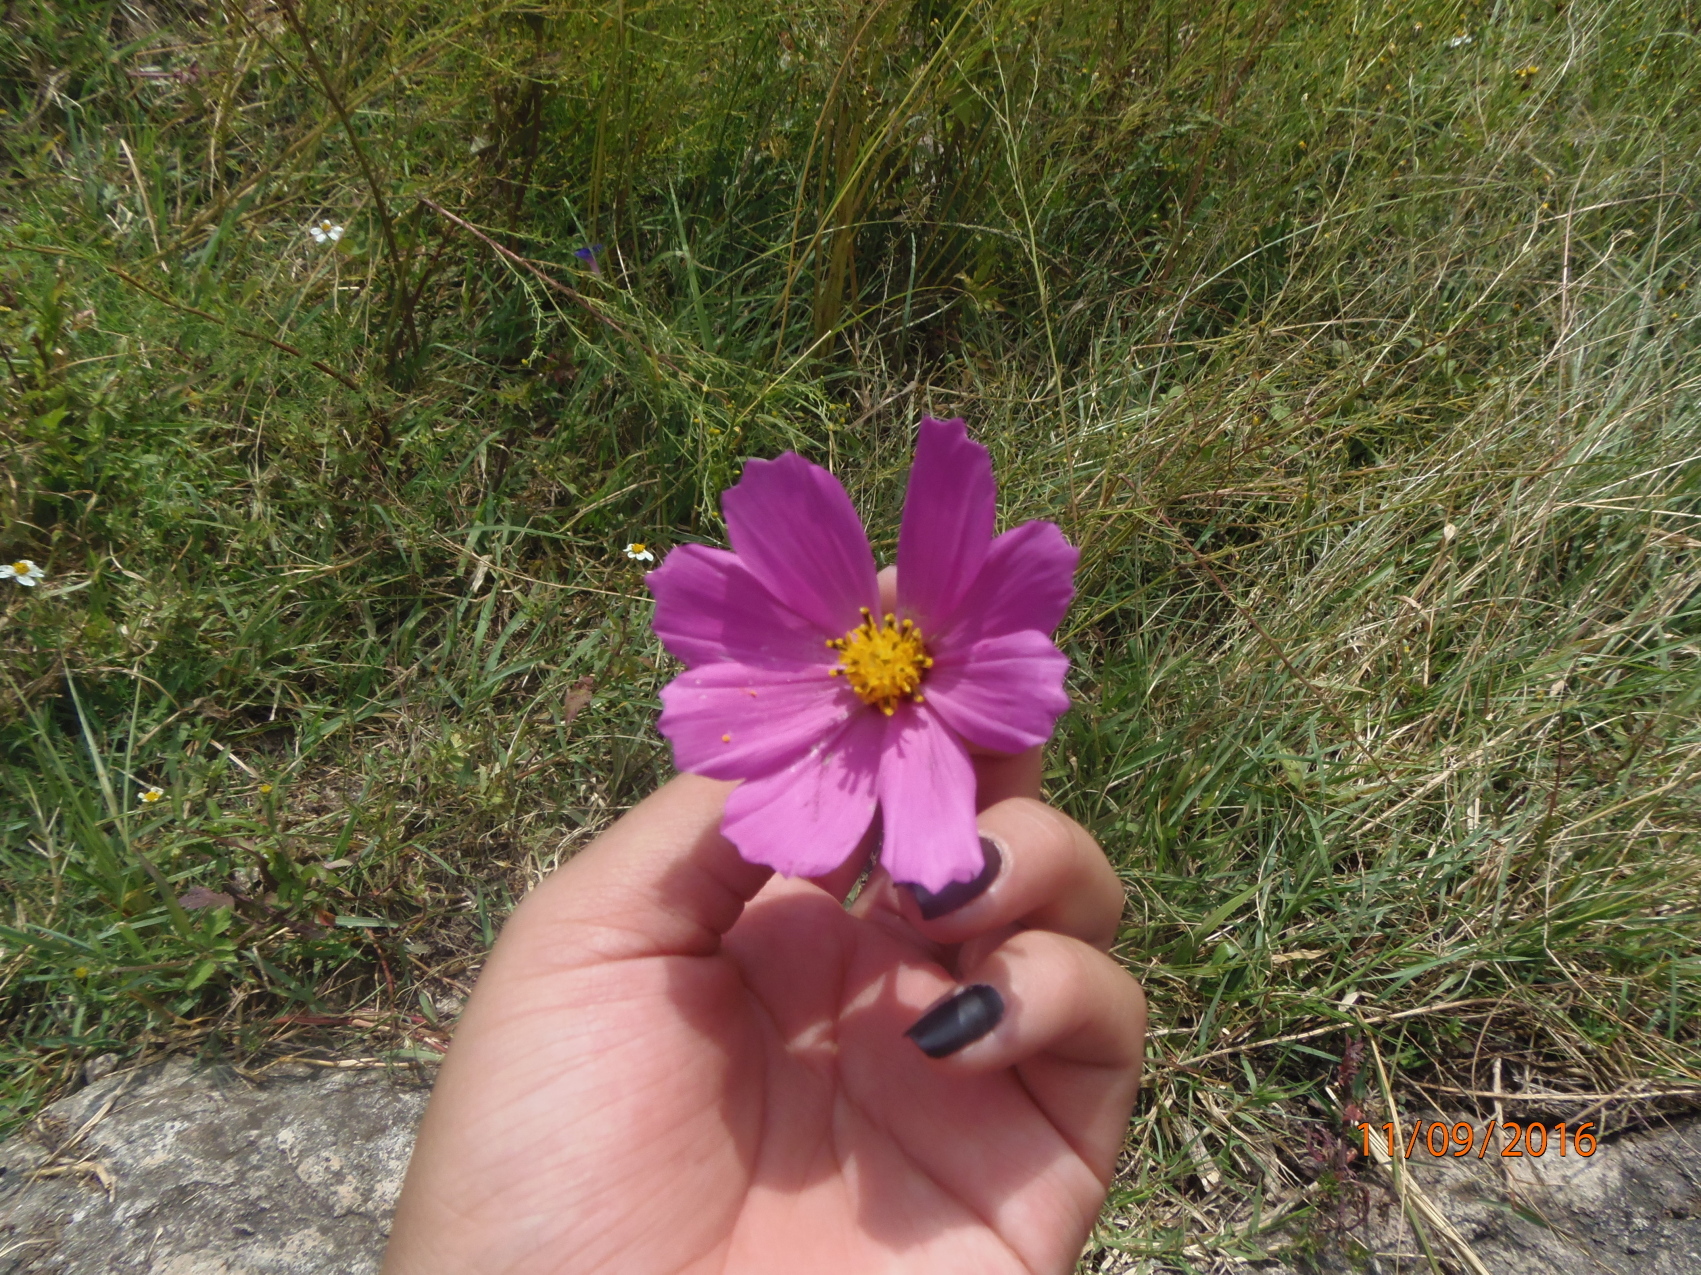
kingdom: Plantae
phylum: Tracheophyta
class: Magnoliopsida
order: Asterales
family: Asteraceae
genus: Cosmos
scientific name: Cosmos bipinnatus
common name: Garden cosmos
